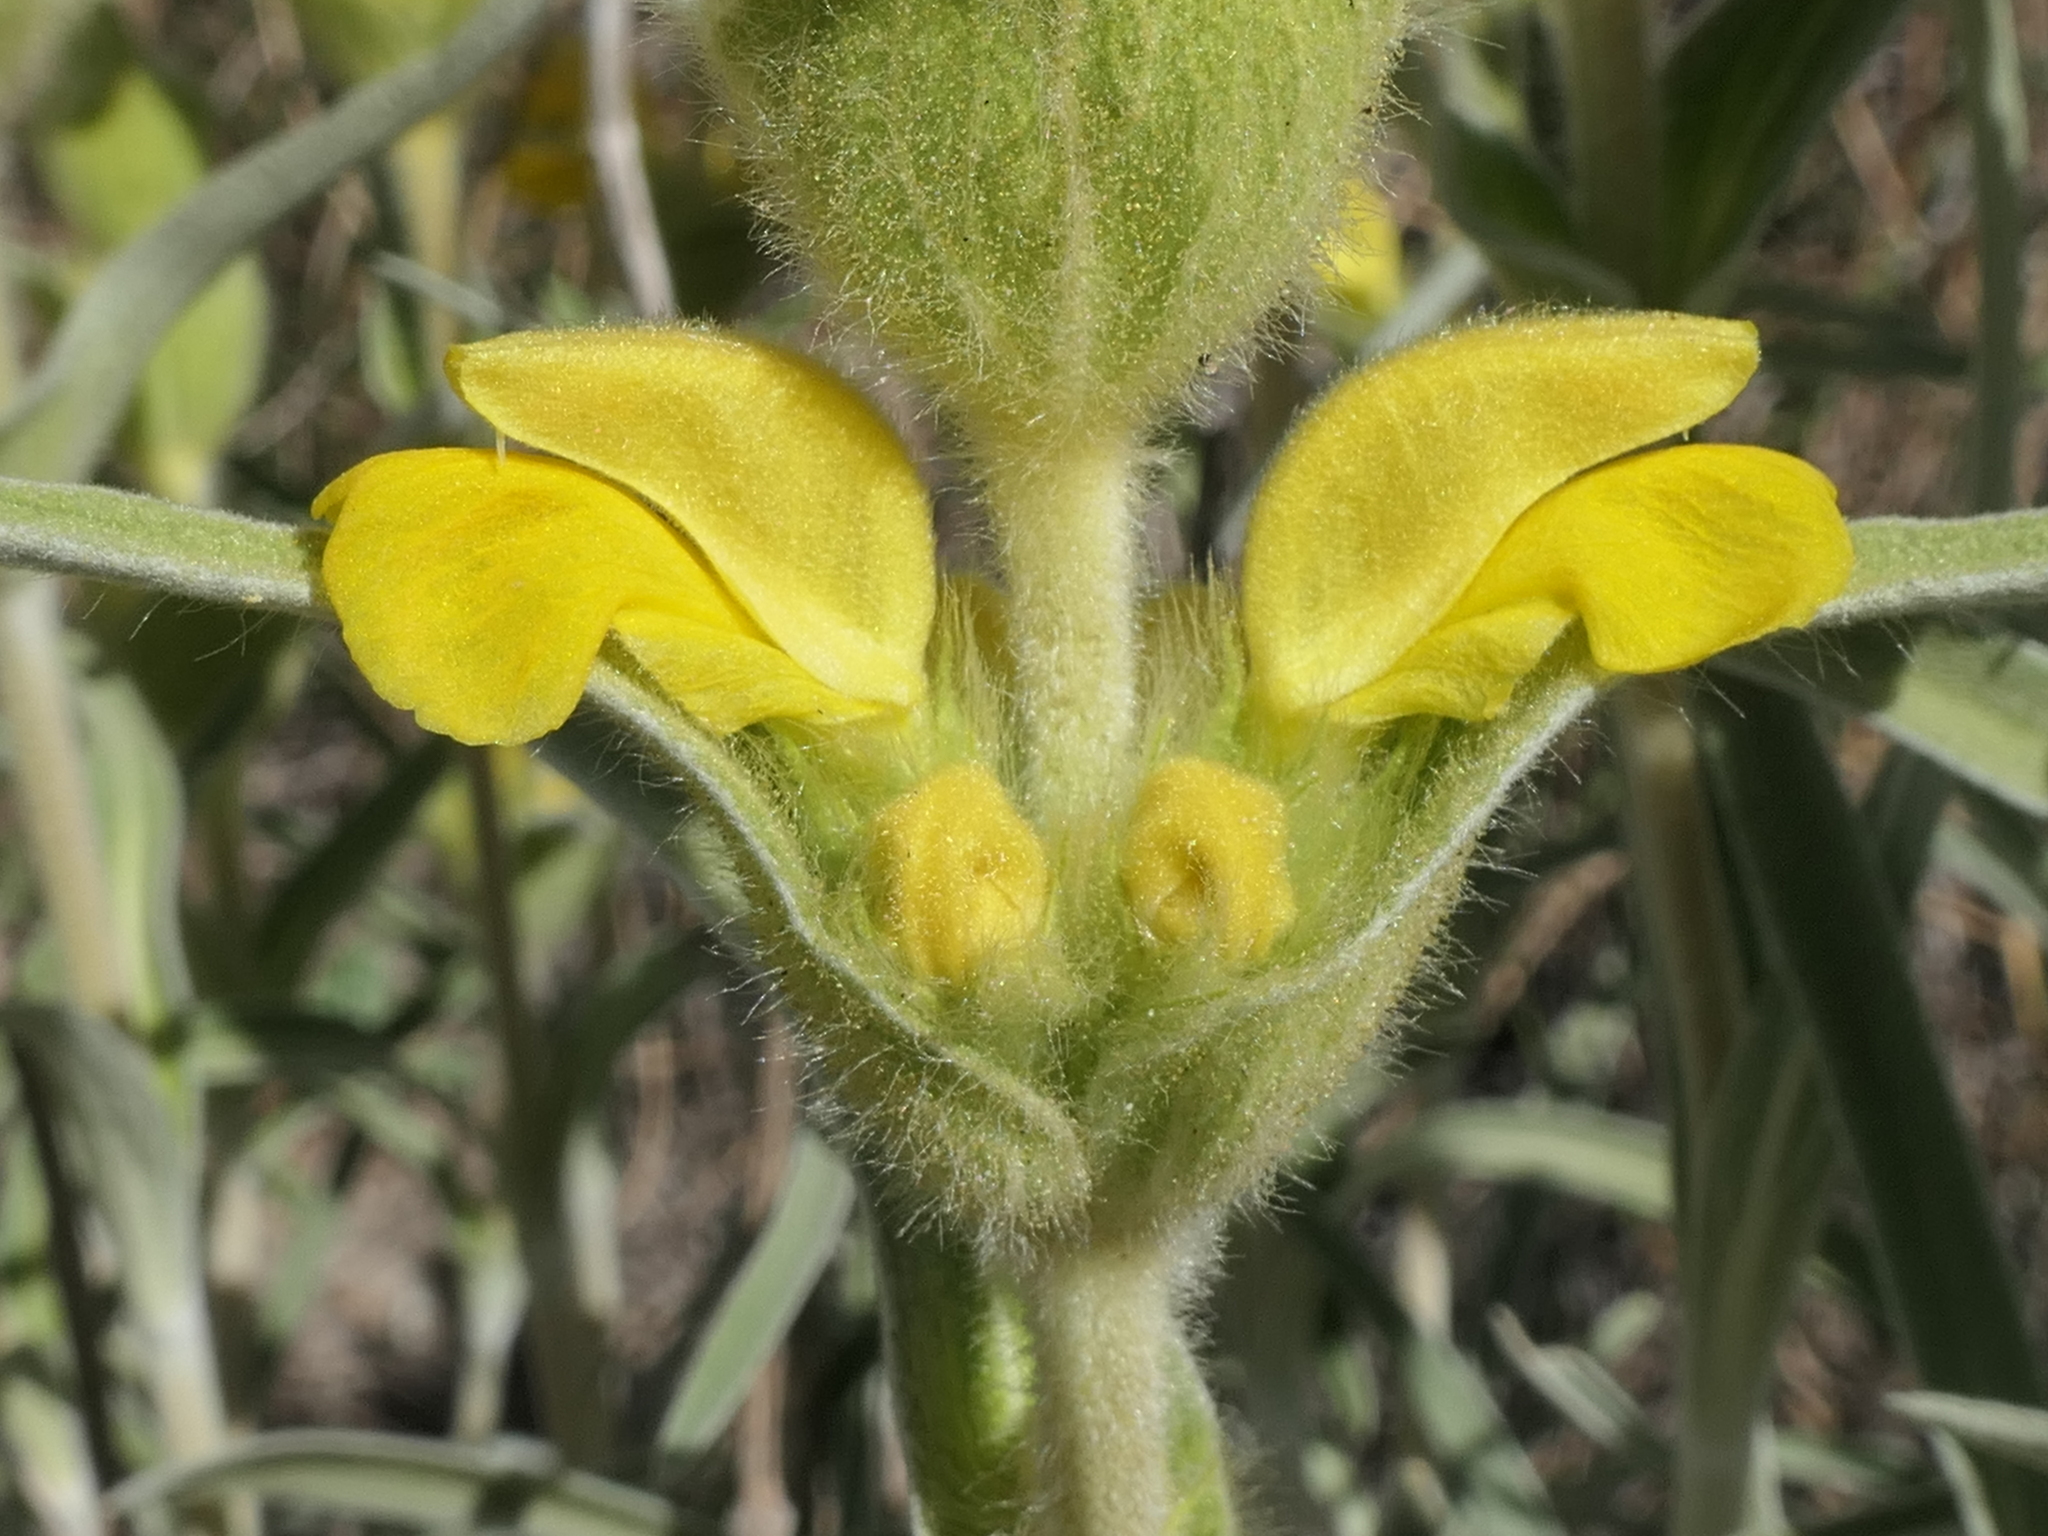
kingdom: Plantae
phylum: Tracheophyta
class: Magnoliopsida
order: Lamiales
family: Lamiaceae
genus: Phlomis
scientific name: Phlomis lychnitis
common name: Lampwickplant
